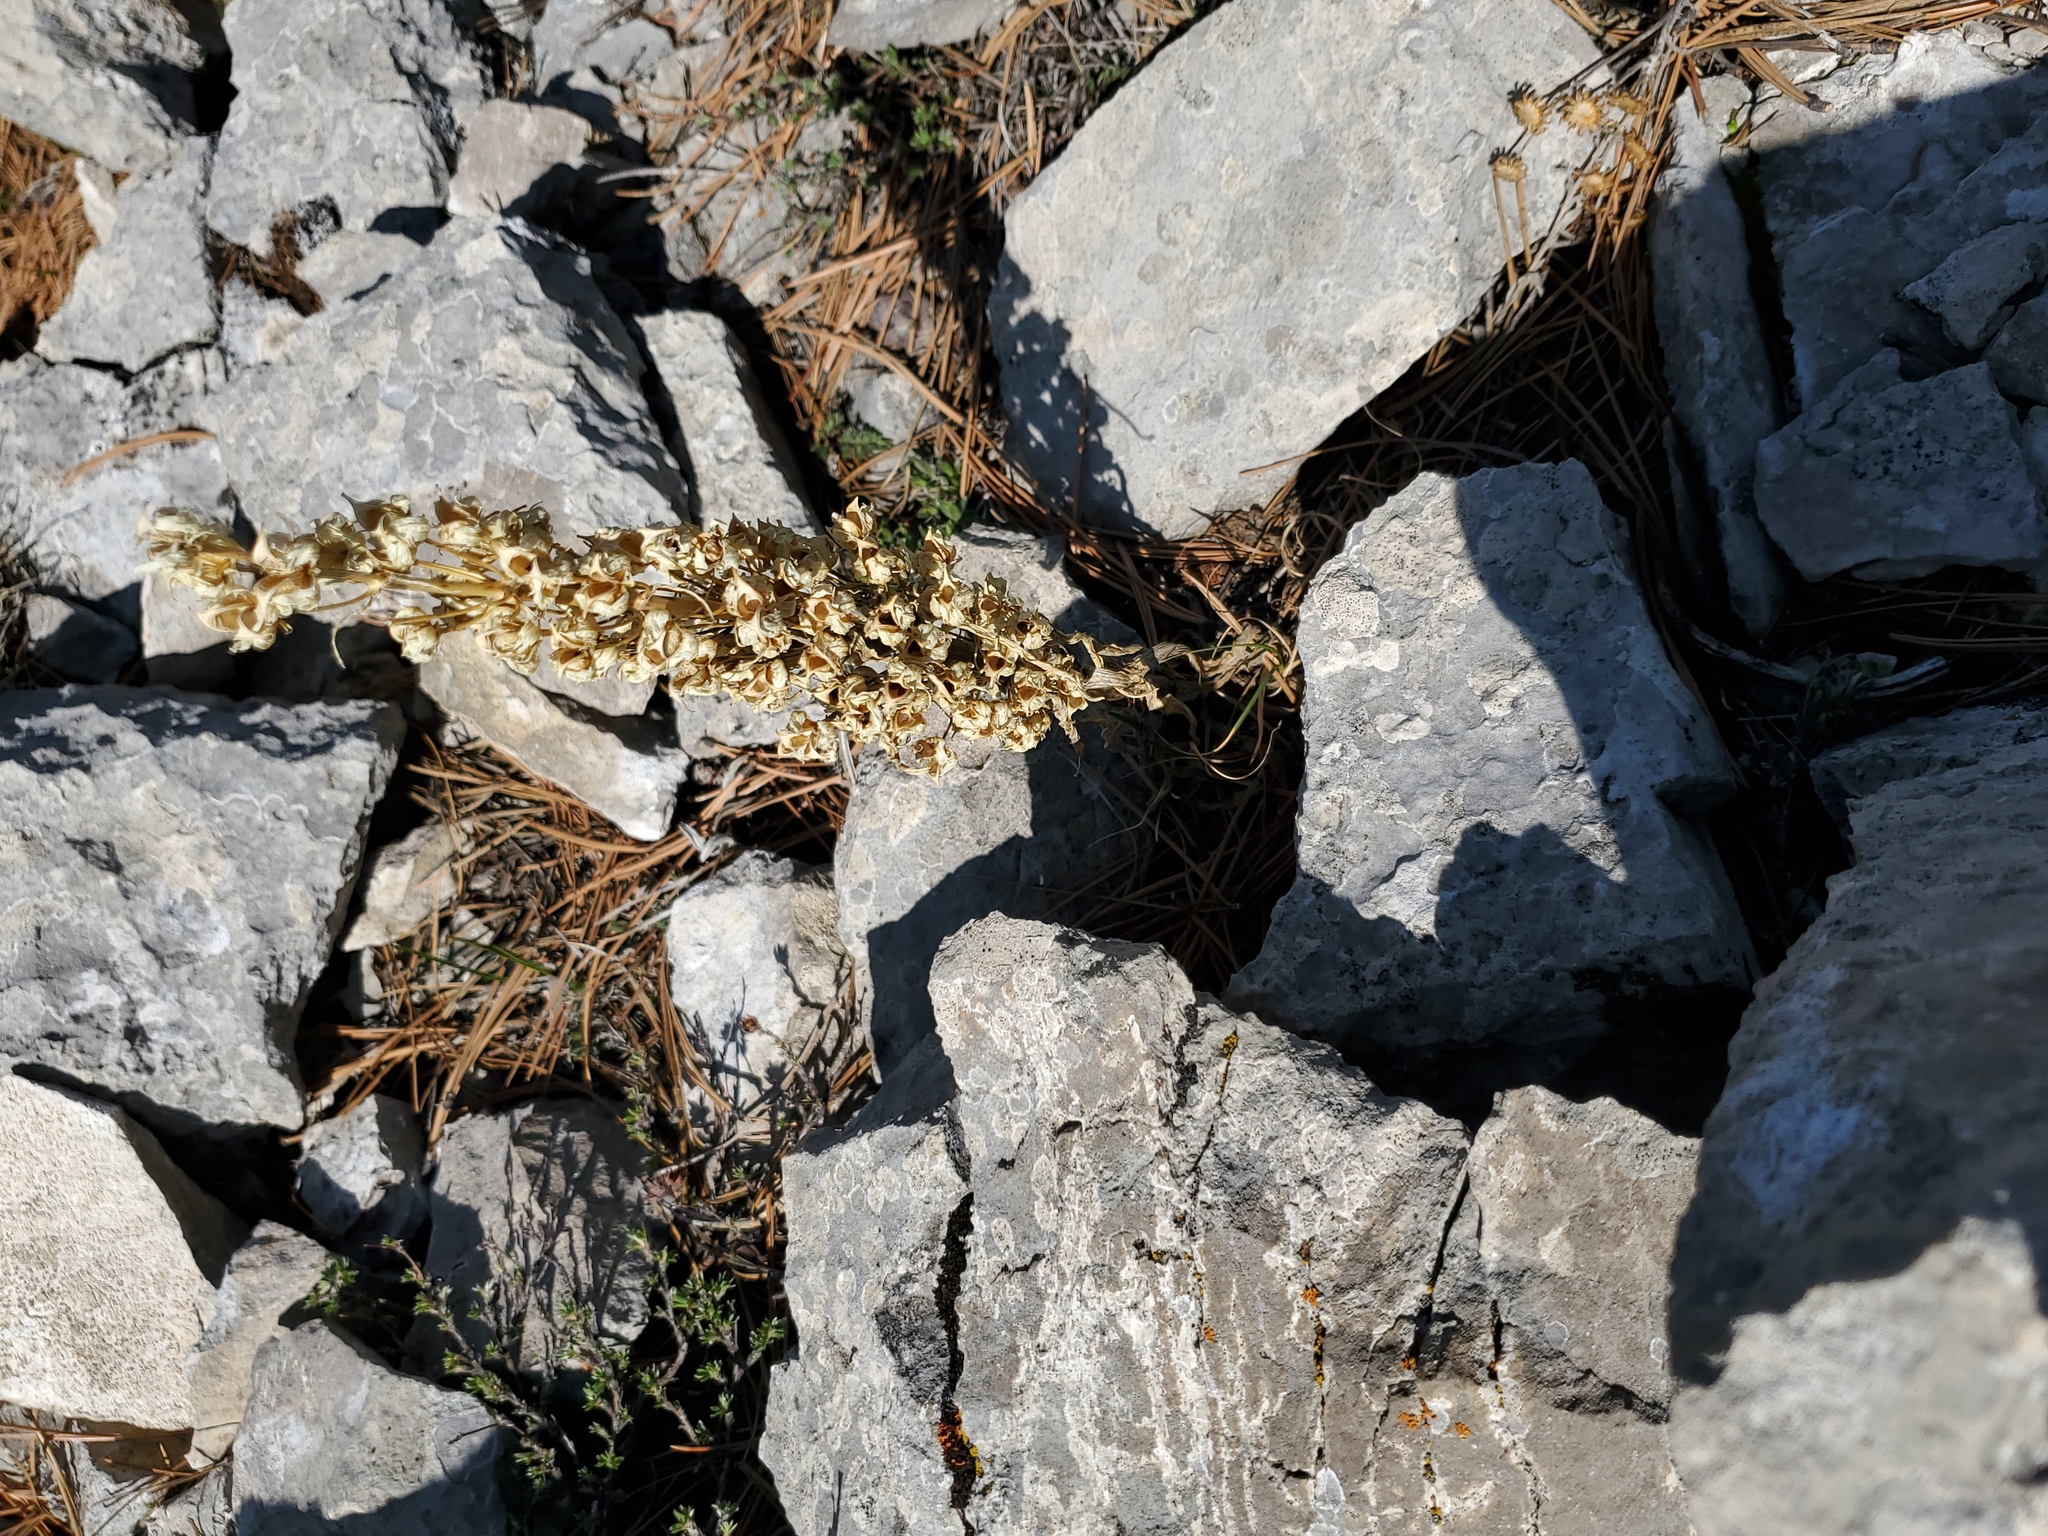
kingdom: Plantae
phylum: Tracheophyta
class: Magnoliopsida
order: Gentianales
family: Gentianaceae
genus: Frasera
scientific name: Frasera speciosa
